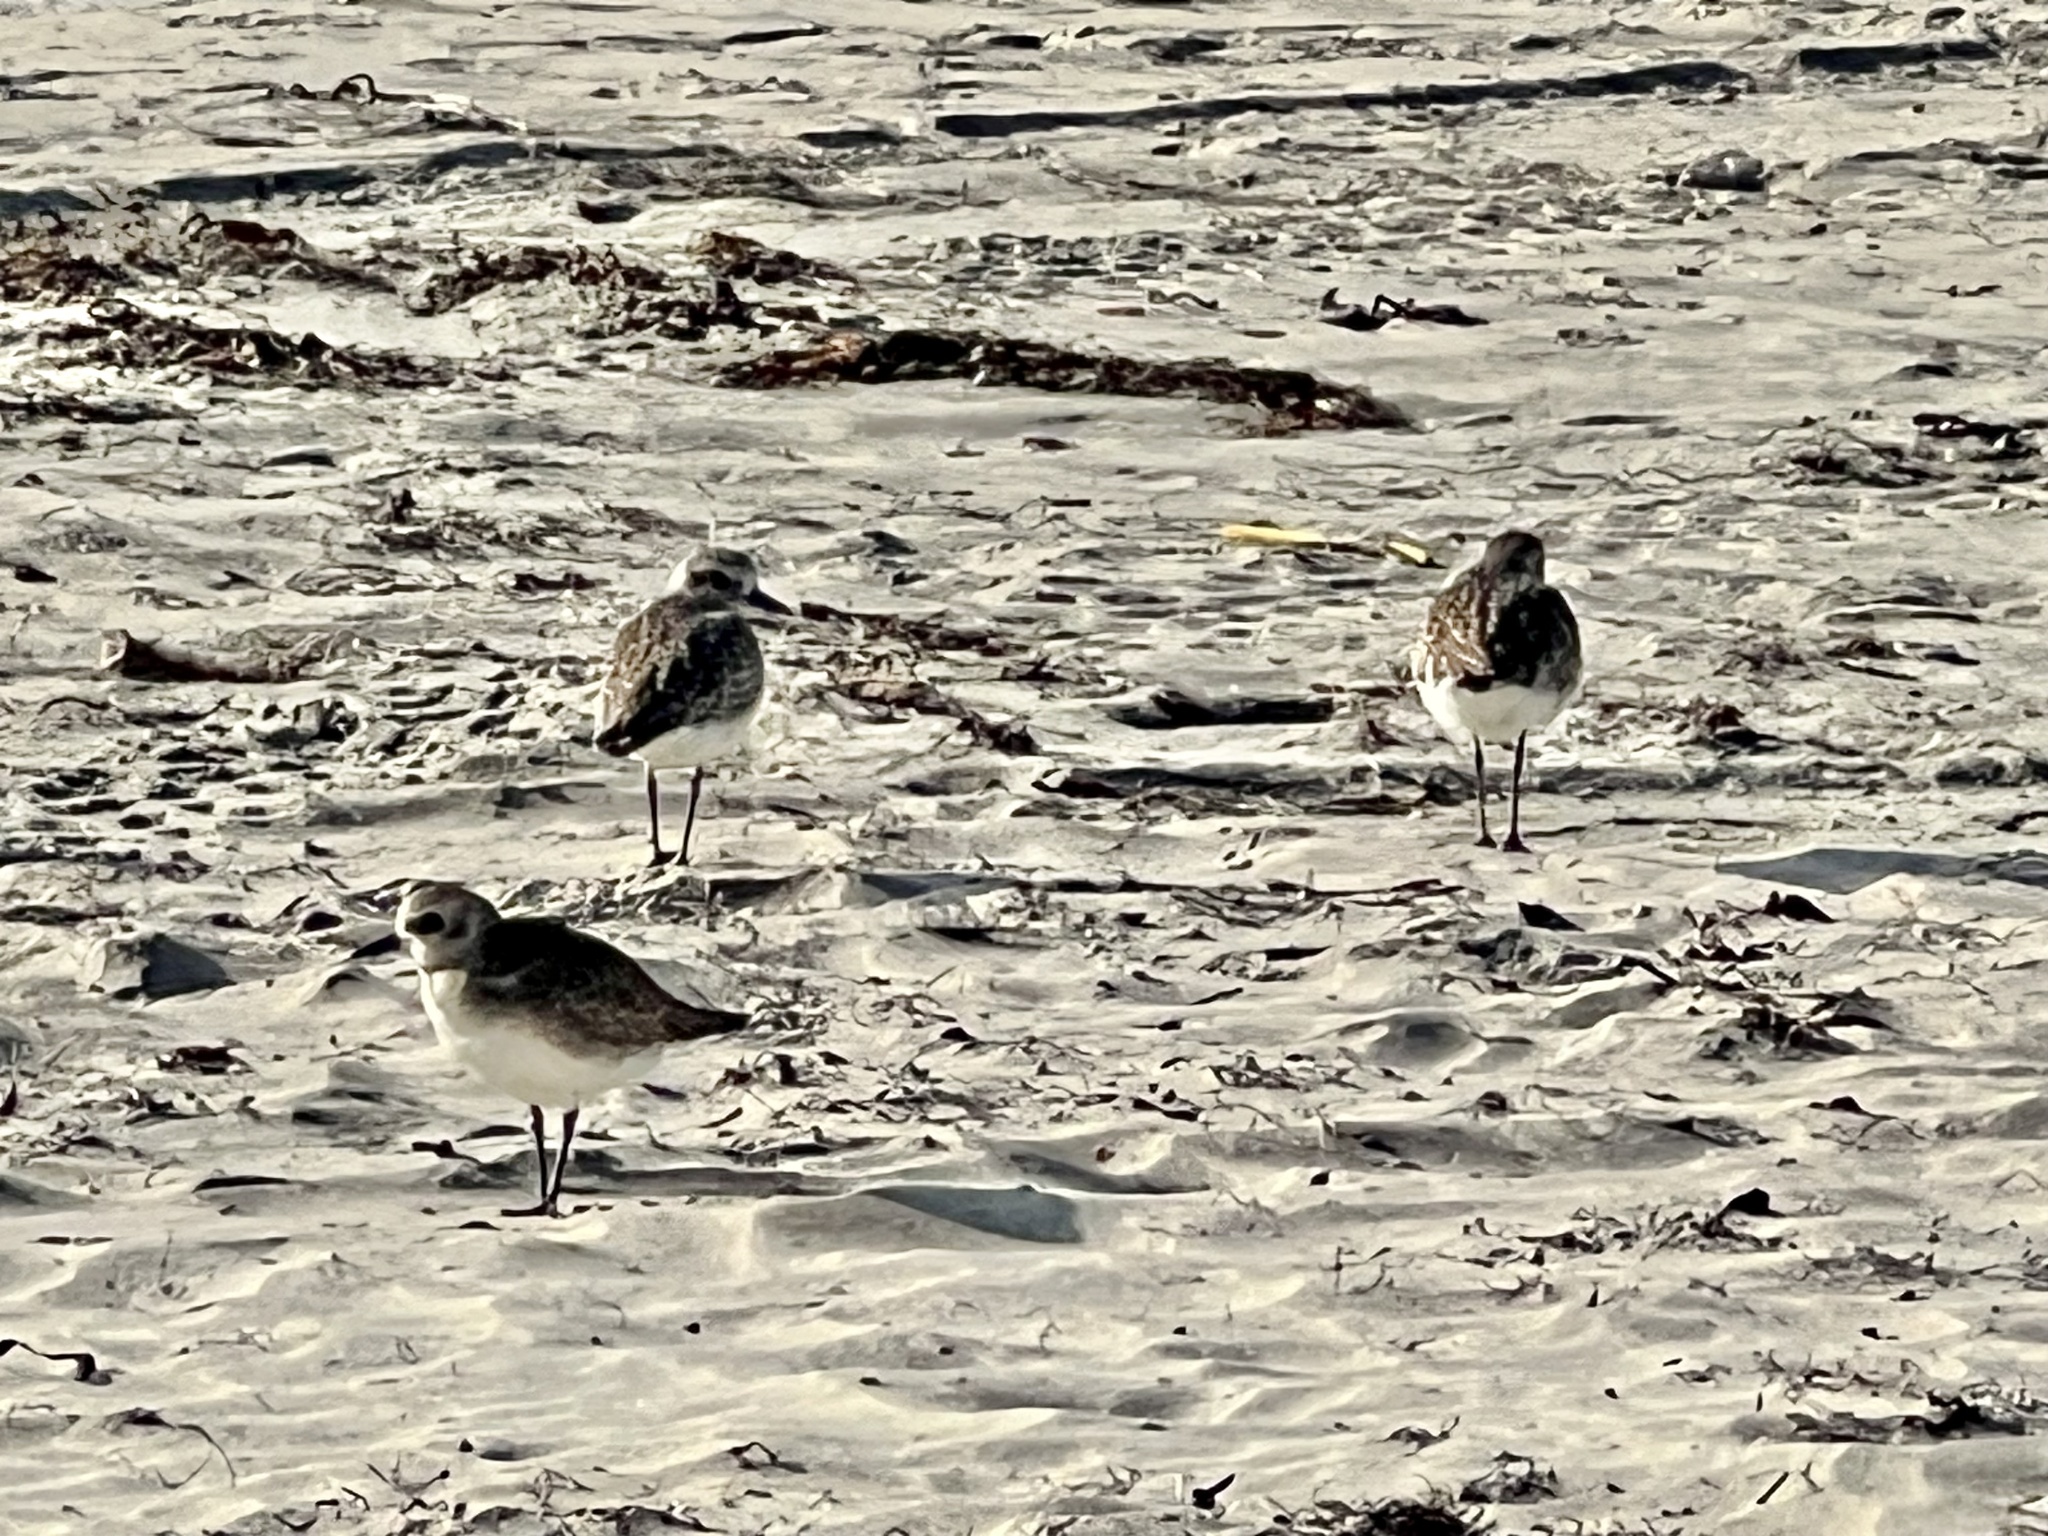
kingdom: Animalia
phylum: Chordata
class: Aves
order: Charadriiformes
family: Charadriidae
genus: Pluvialis
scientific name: Pluvialis squatarola
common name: Grey plover
